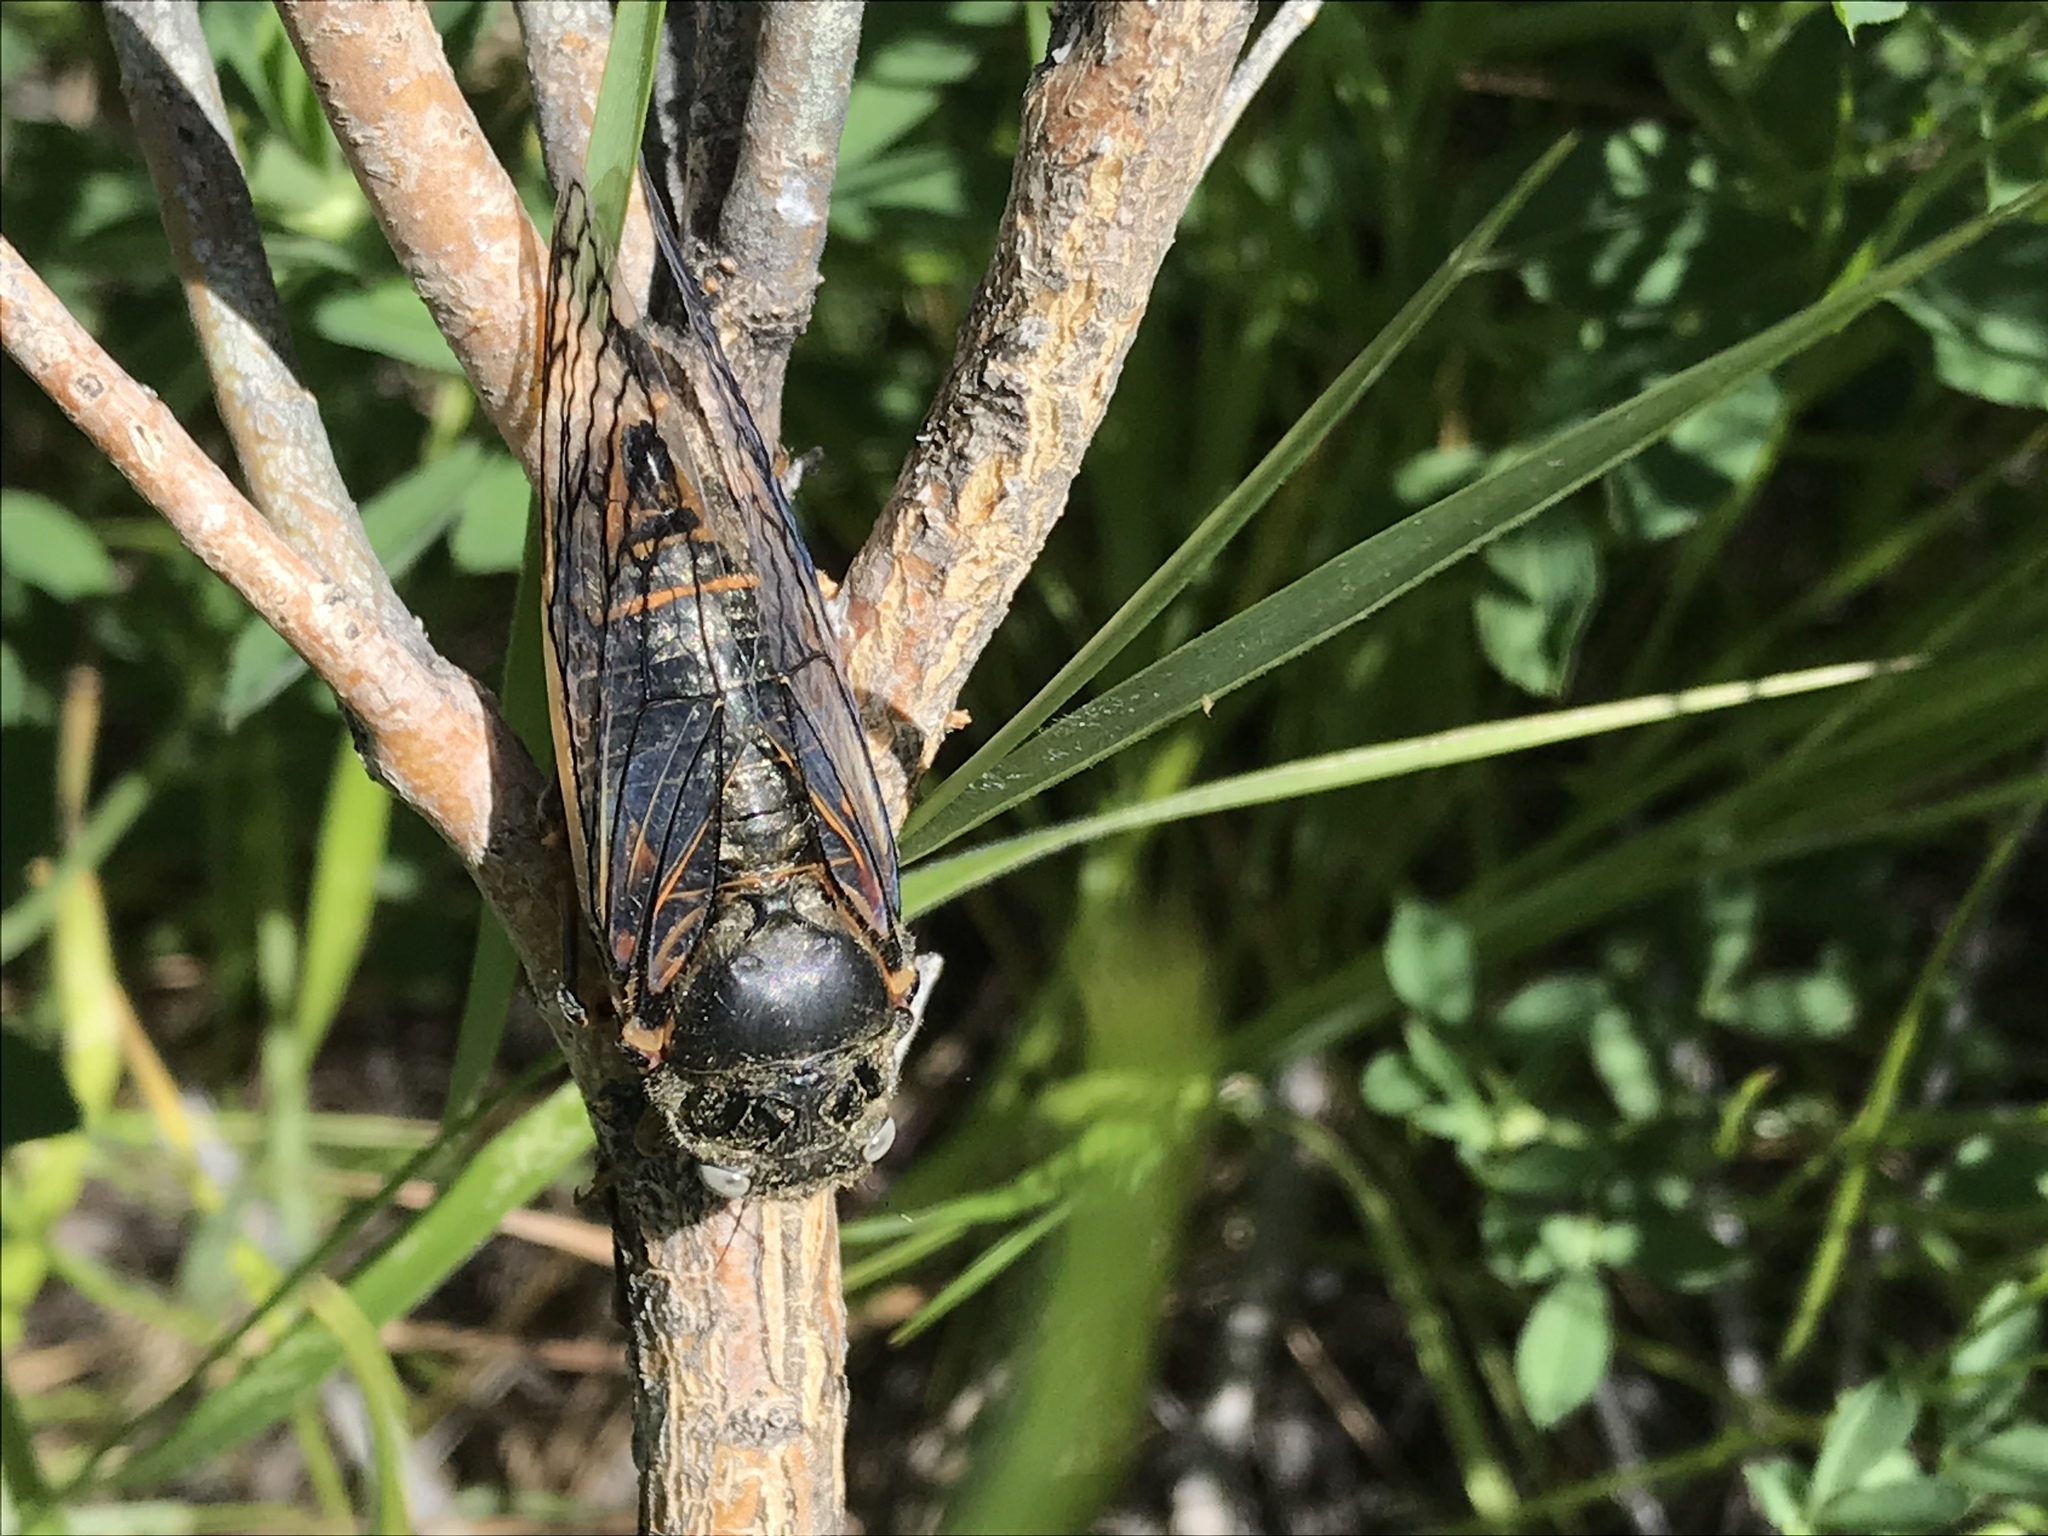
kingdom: Animalia
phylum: Arthropoda
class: Insecta
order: Hemiptera
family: Cicadidae
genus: Okanagana
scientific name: Okanagana magnifica
